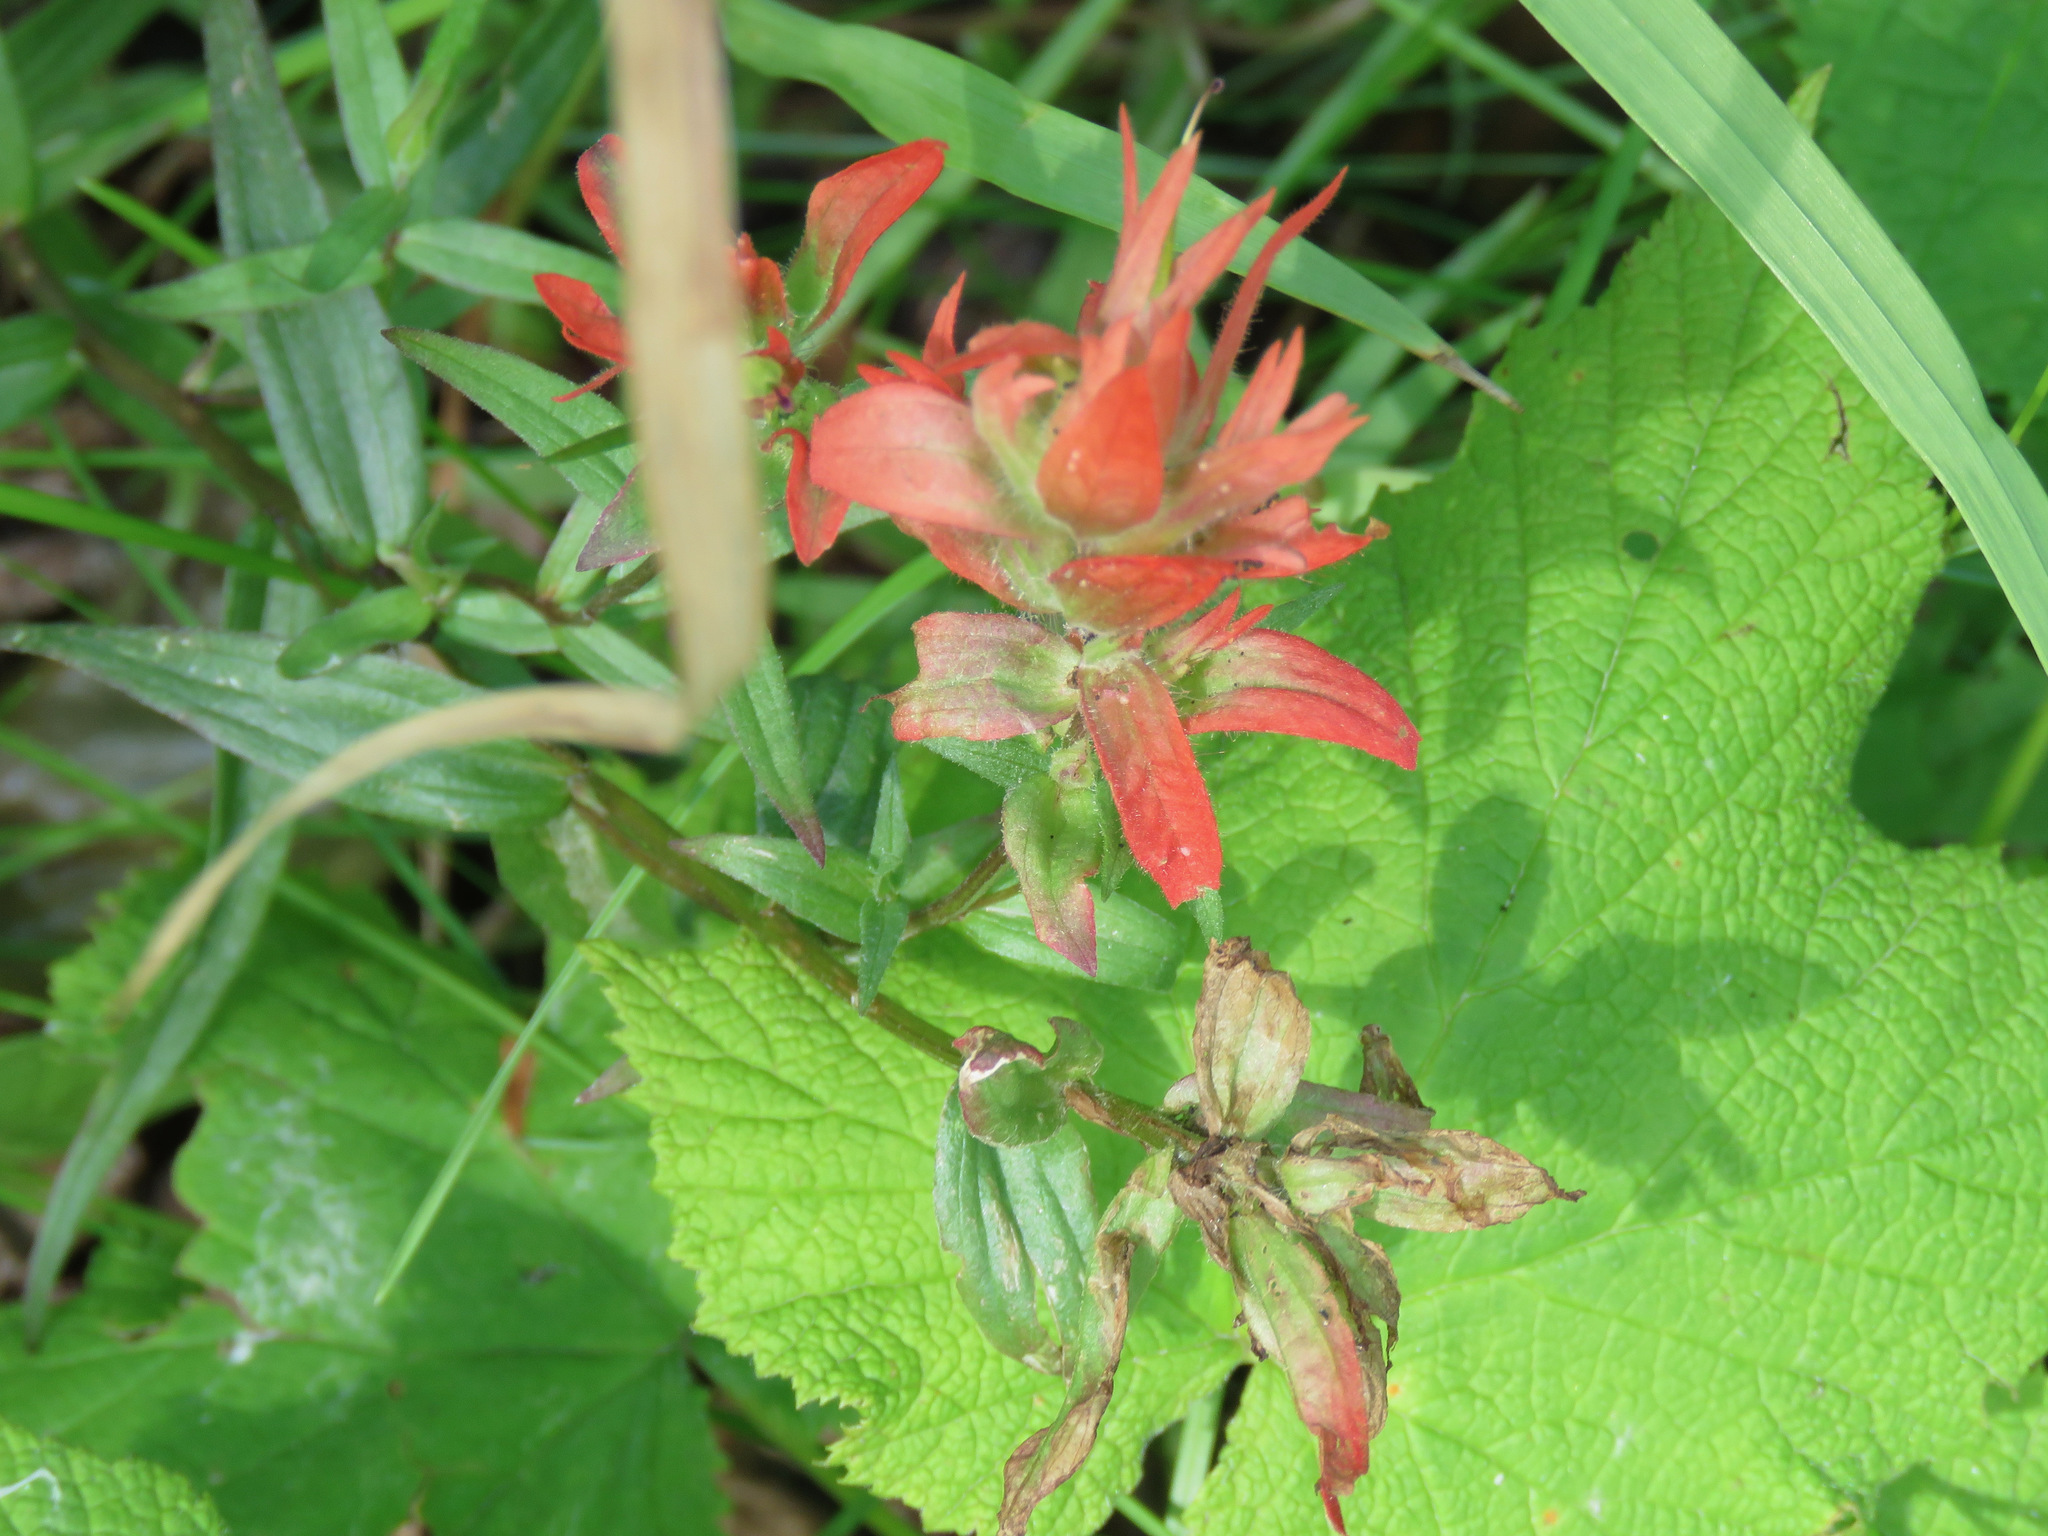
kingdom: Plantae
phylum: Tracheophyta
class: Magnoliopsida
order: Lamiales
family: Orobanchaceae
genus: Castilleja
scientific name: Castilleja miniata
